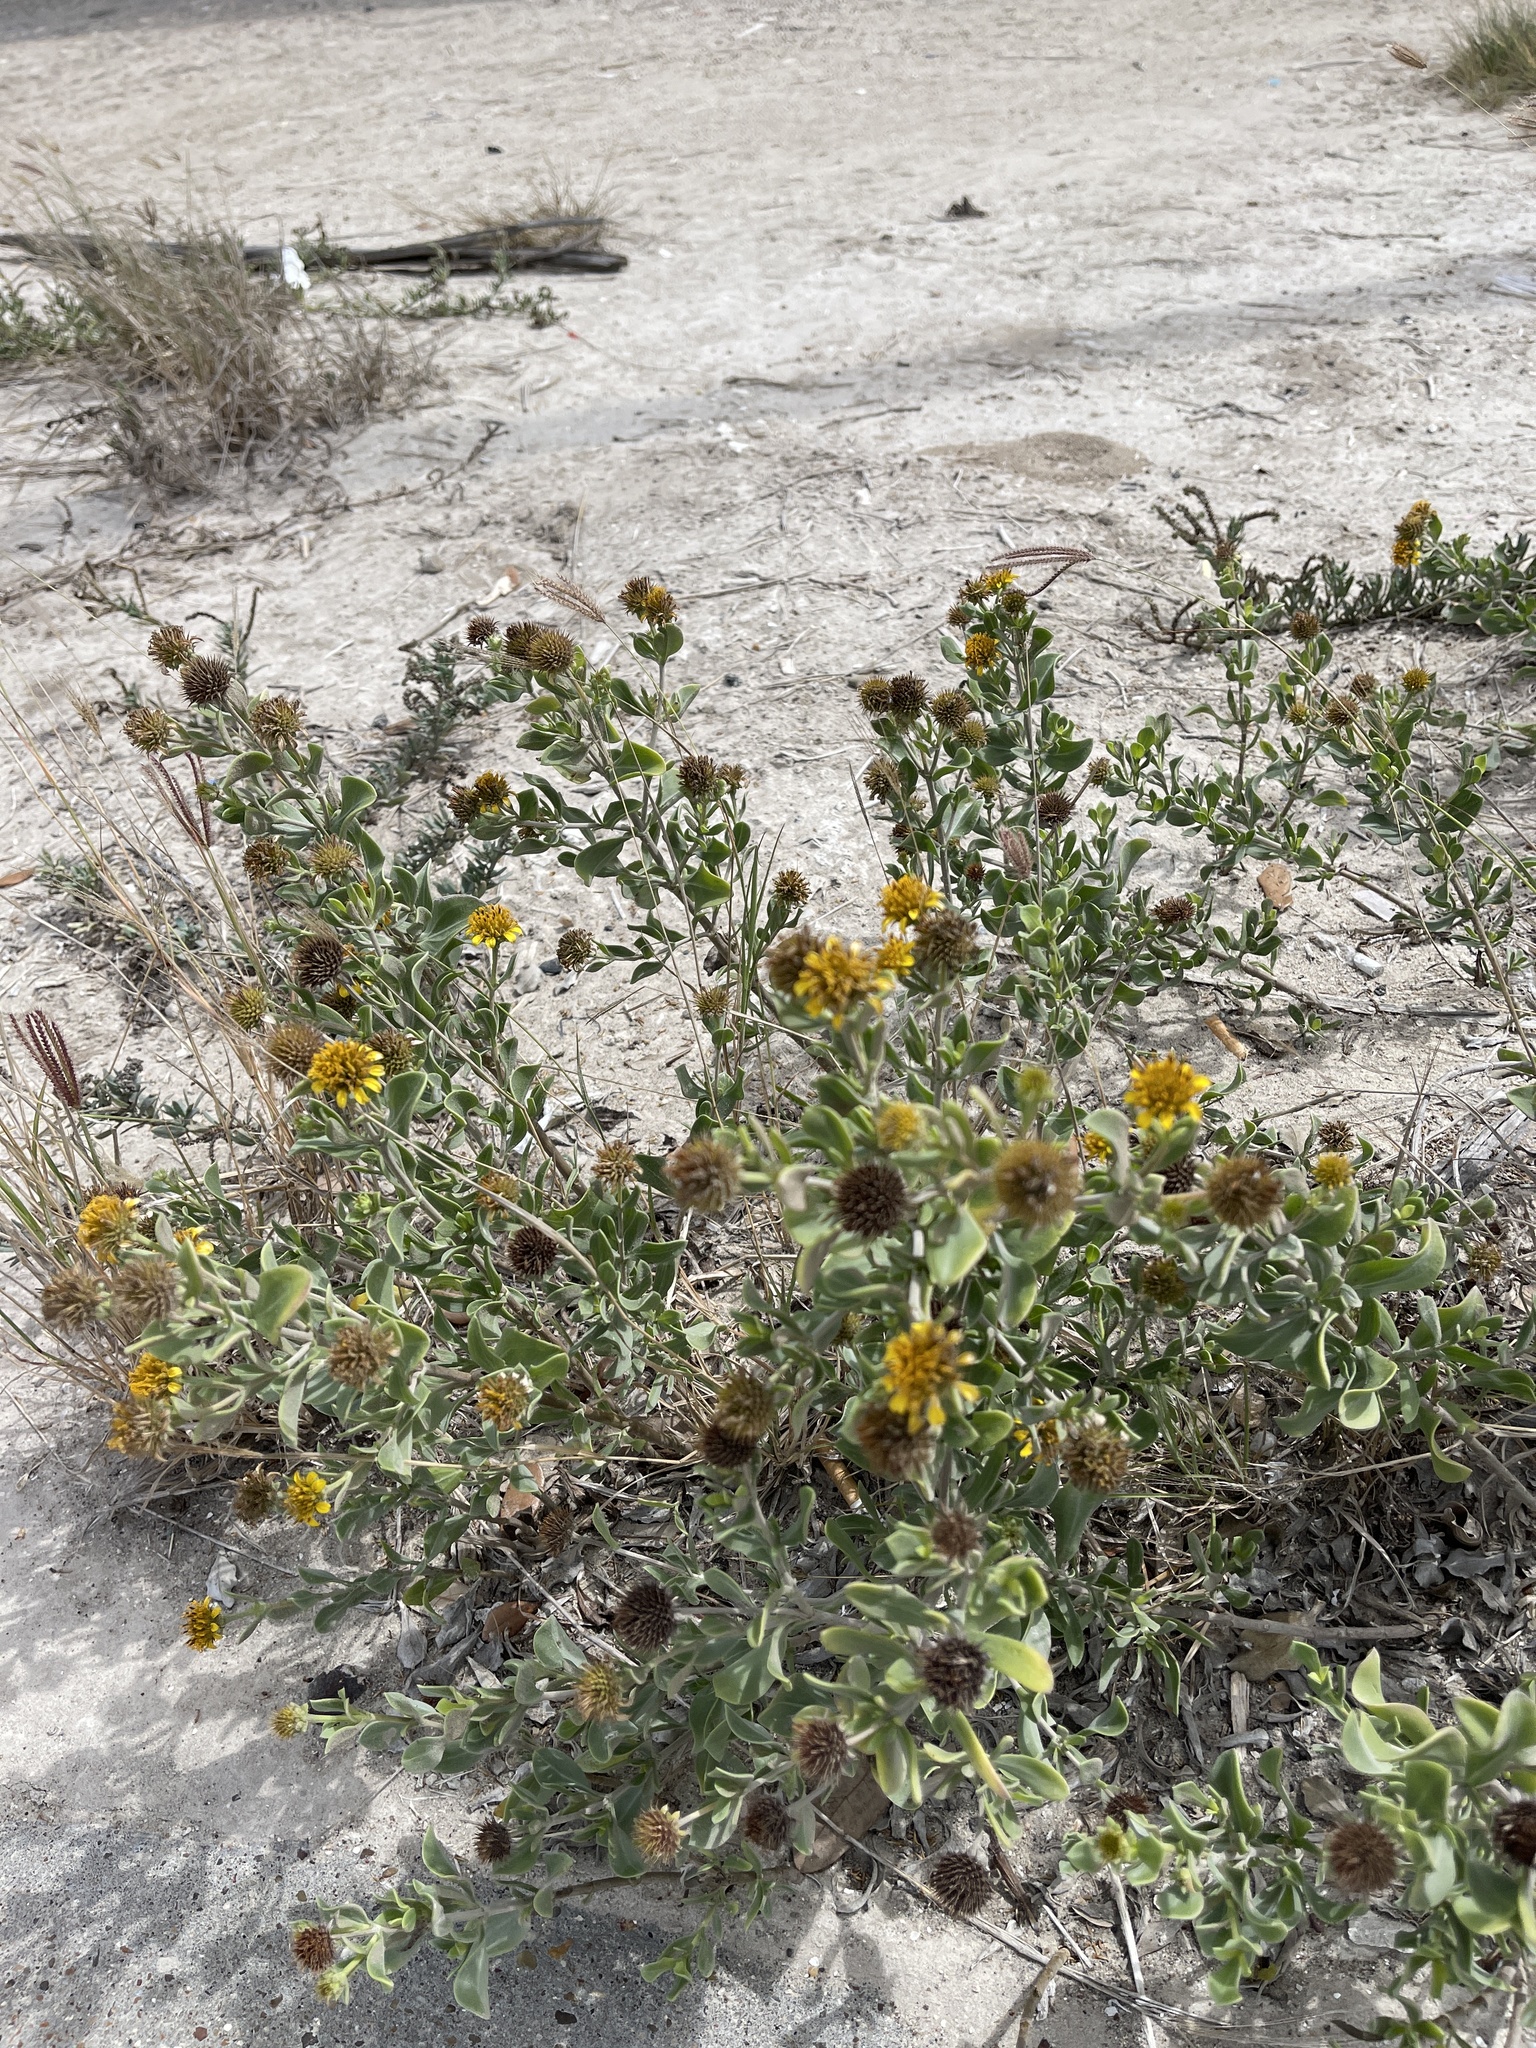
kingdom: Plantae
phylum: Tracheophyta
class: Magnoliopsida
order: Asterales
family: Asteraceae
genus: Borrichia
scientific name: Borrichia frutescens
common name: Sea oxeye
